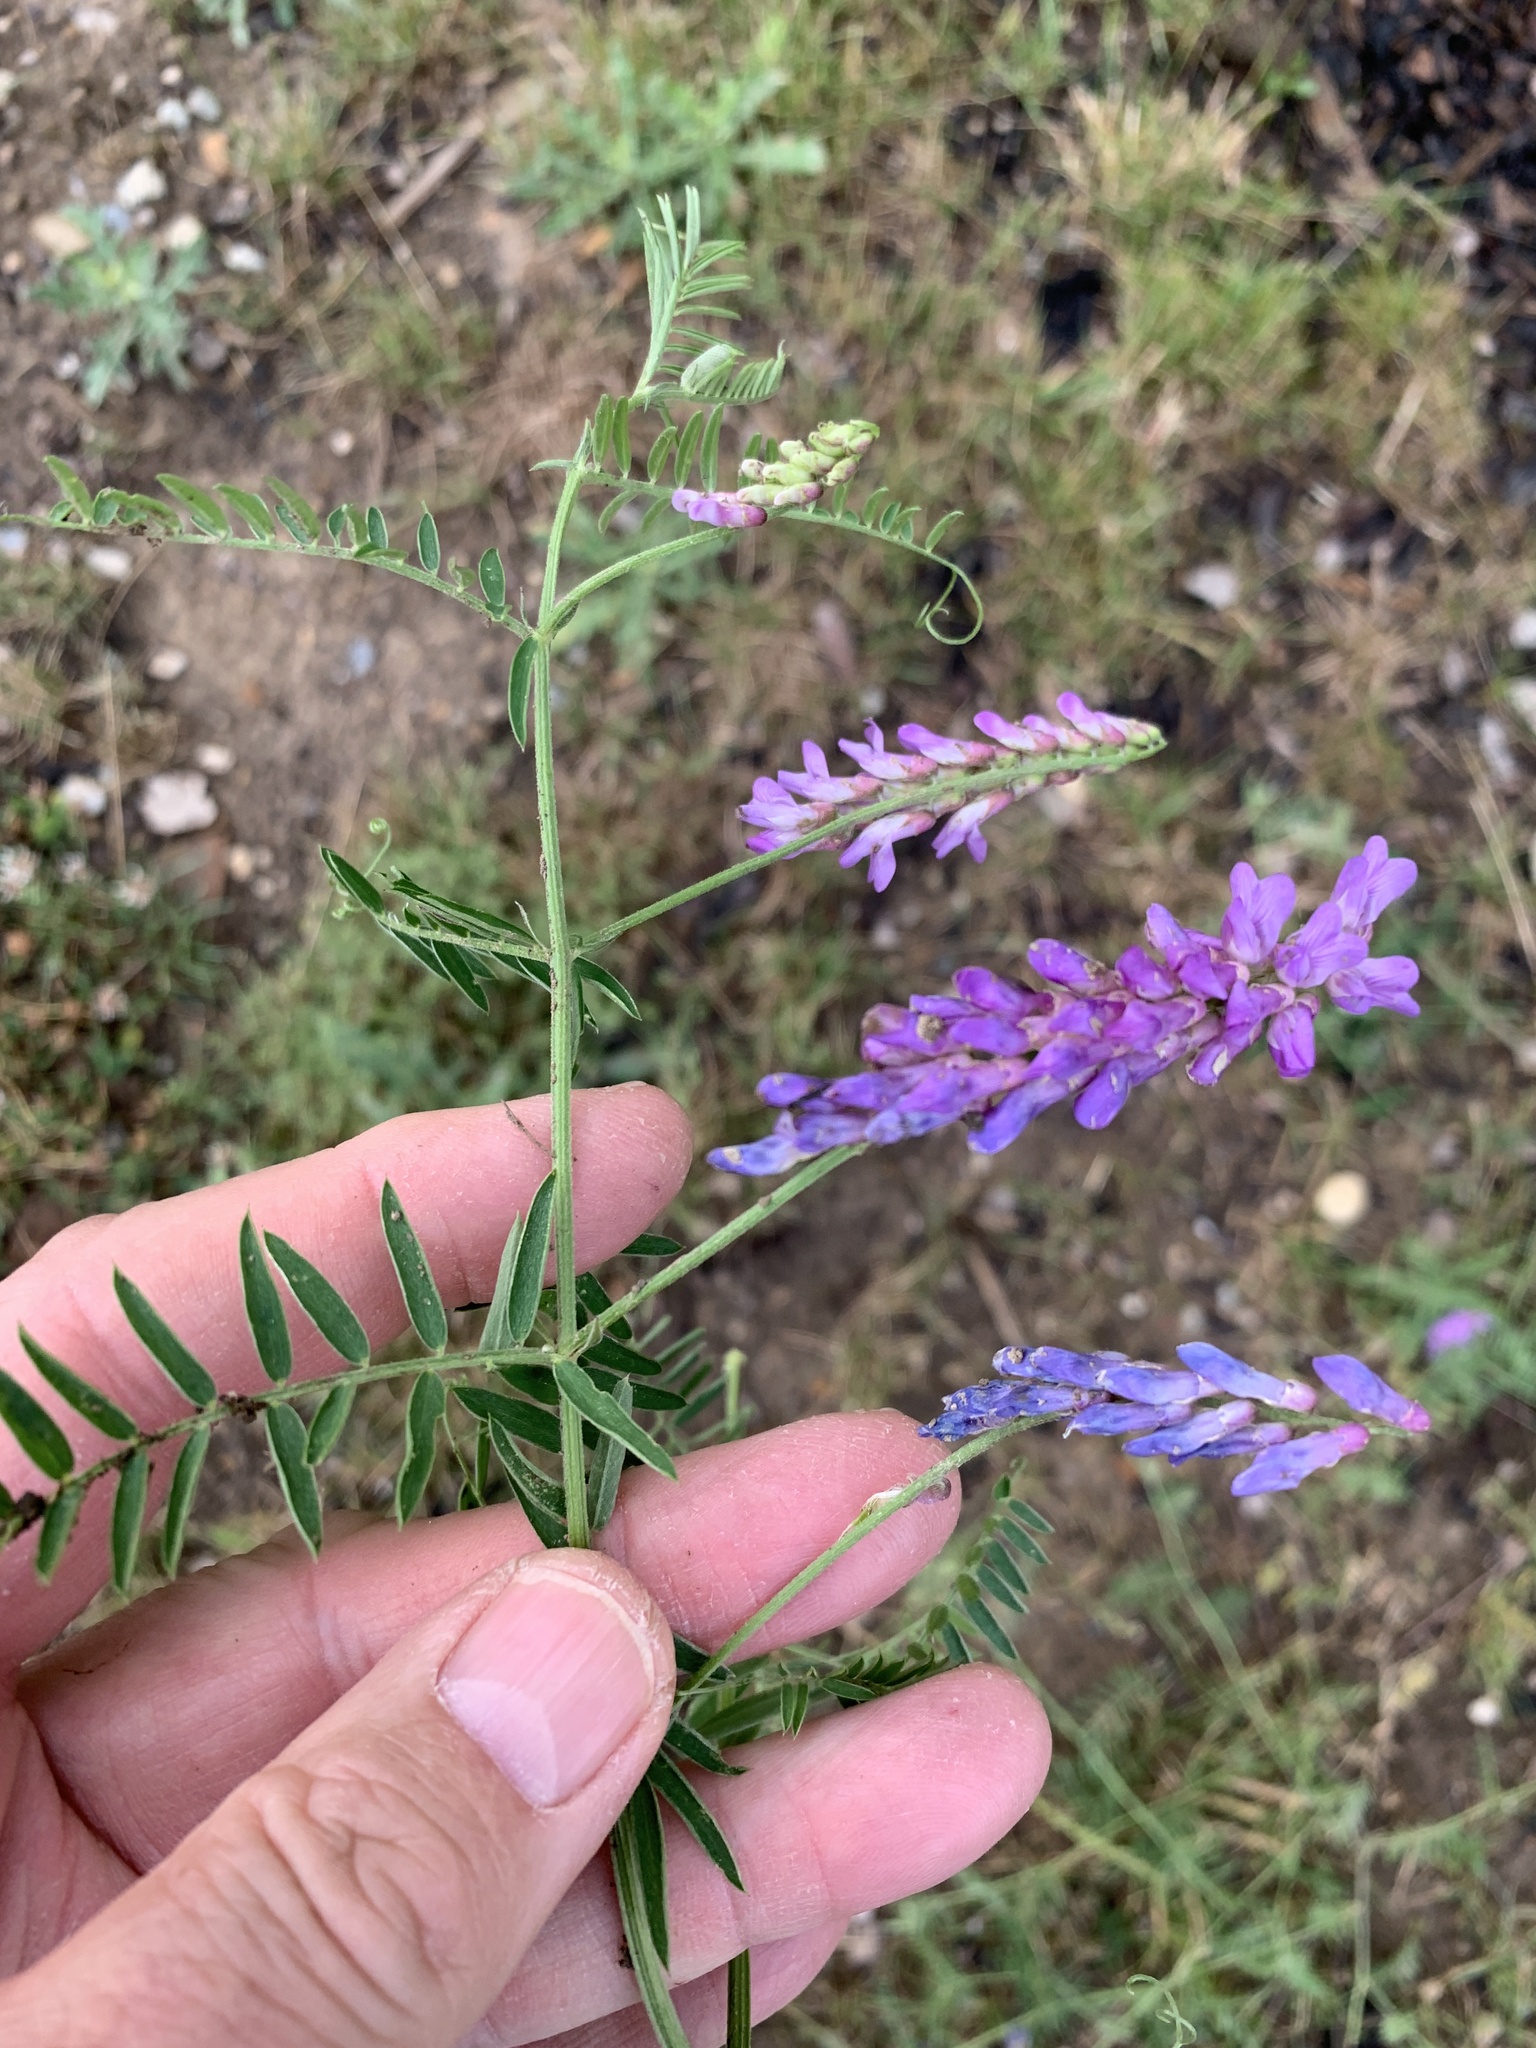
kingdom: Plantae
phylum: Tracheophyta
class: Magnoliopsida
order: Fabales
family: Fabaceae
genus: Vicia
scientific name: Vicia cracca
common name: Bird vetch
